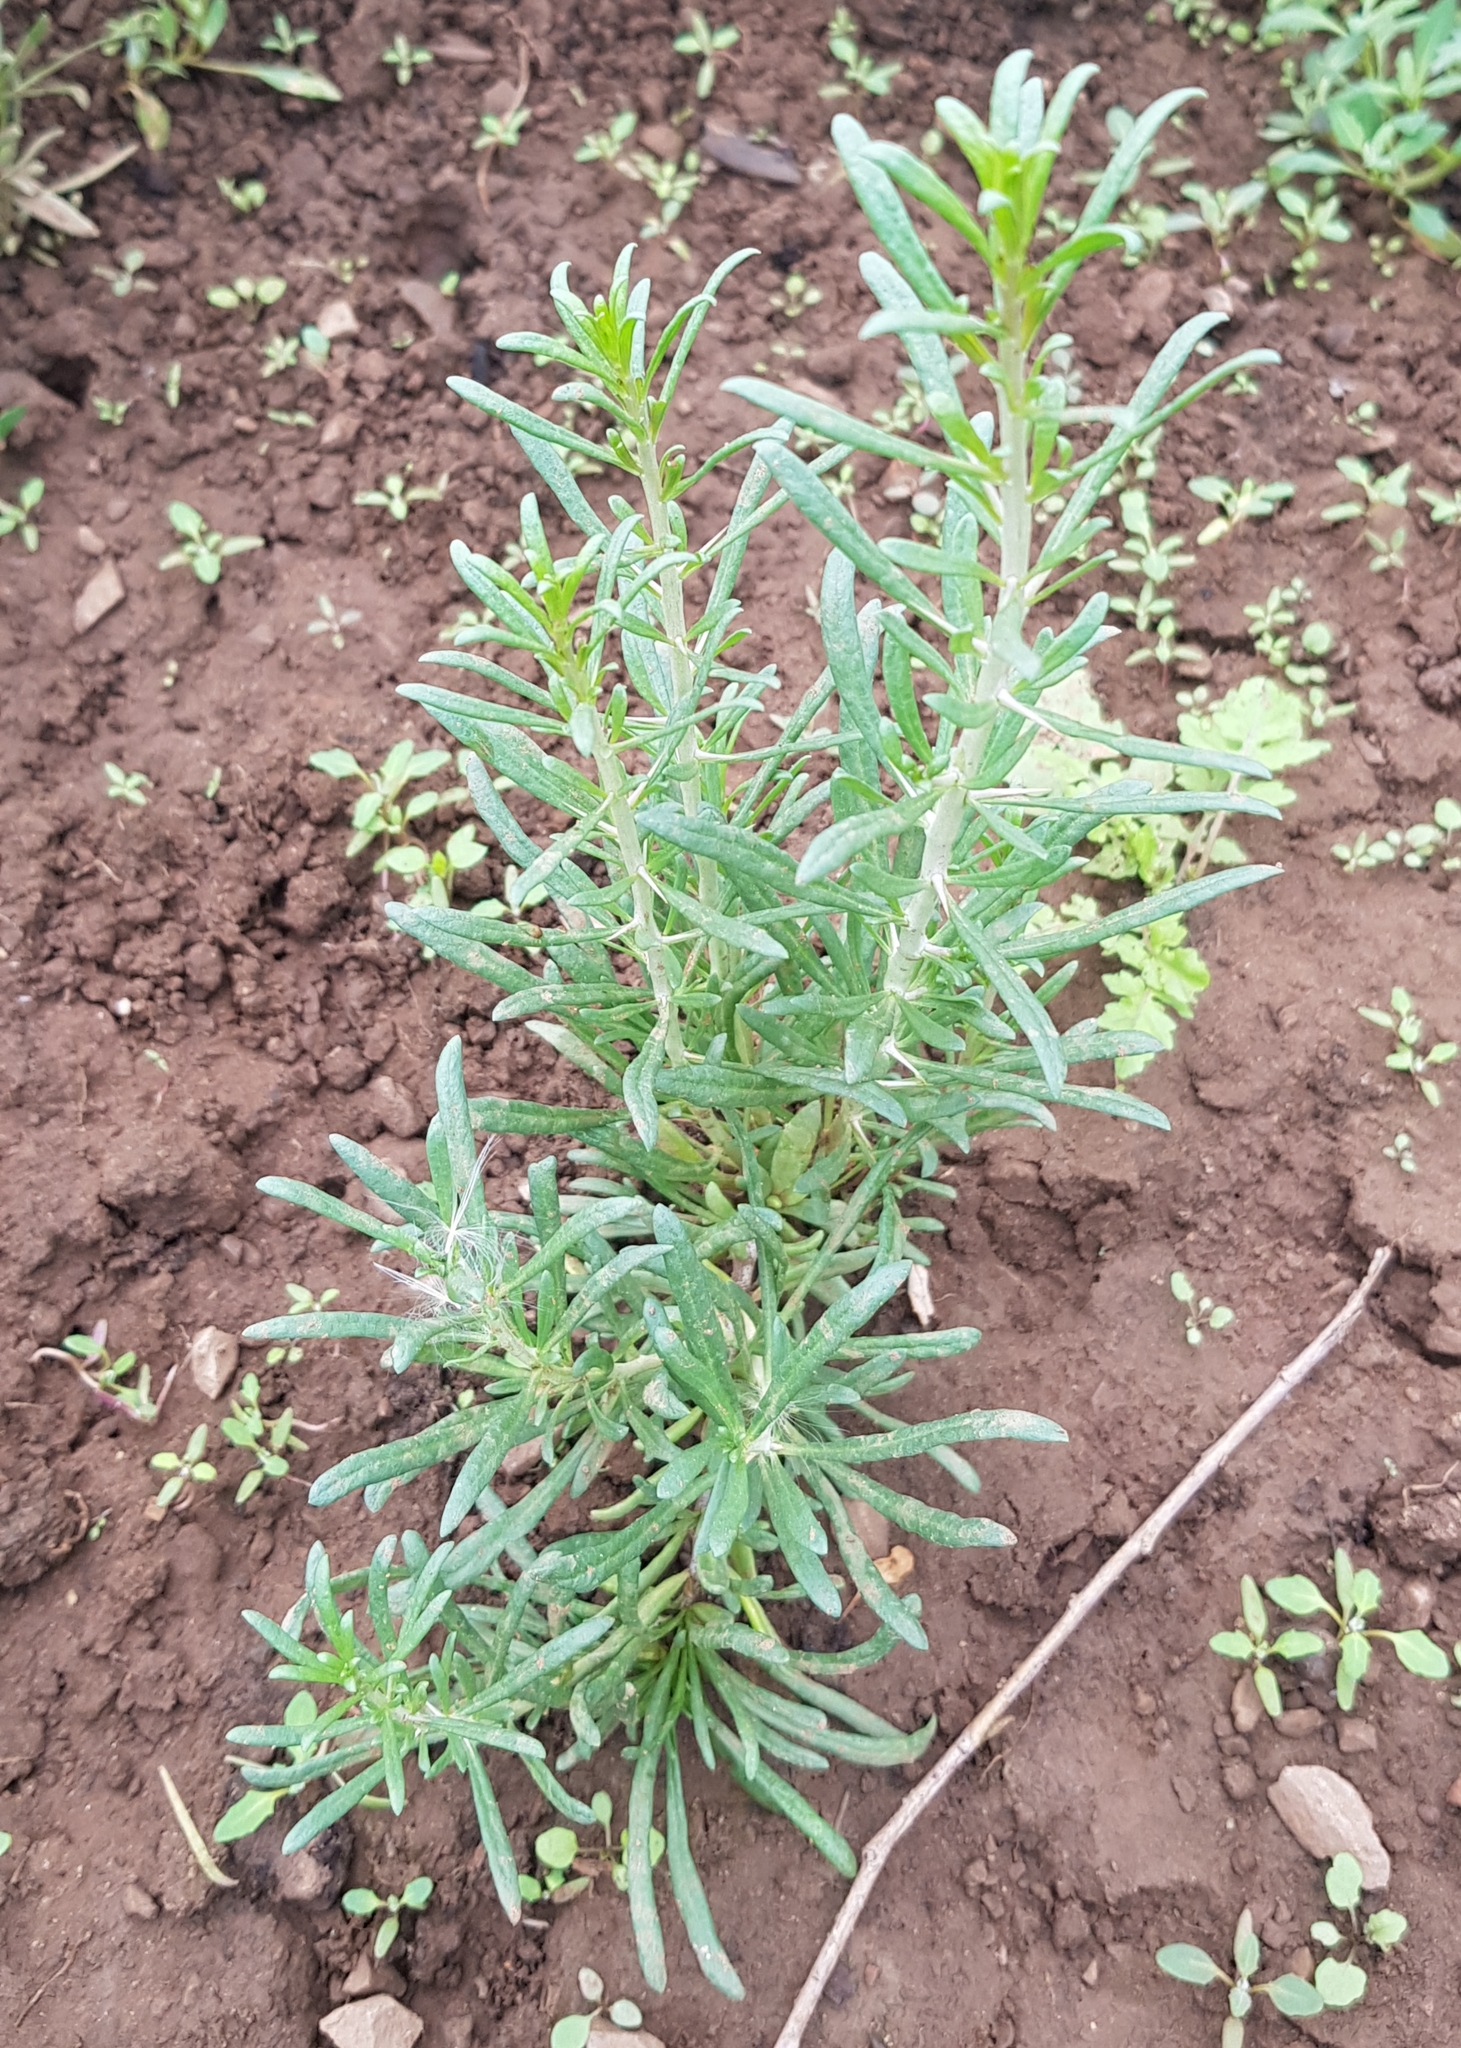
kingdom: Plantae
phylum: Tracheophyta
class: Magnoliopsida
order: Caryophyllales
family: Amaranthaceae
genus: Bassia
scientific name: Bassia scoparia
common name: Belvedere
